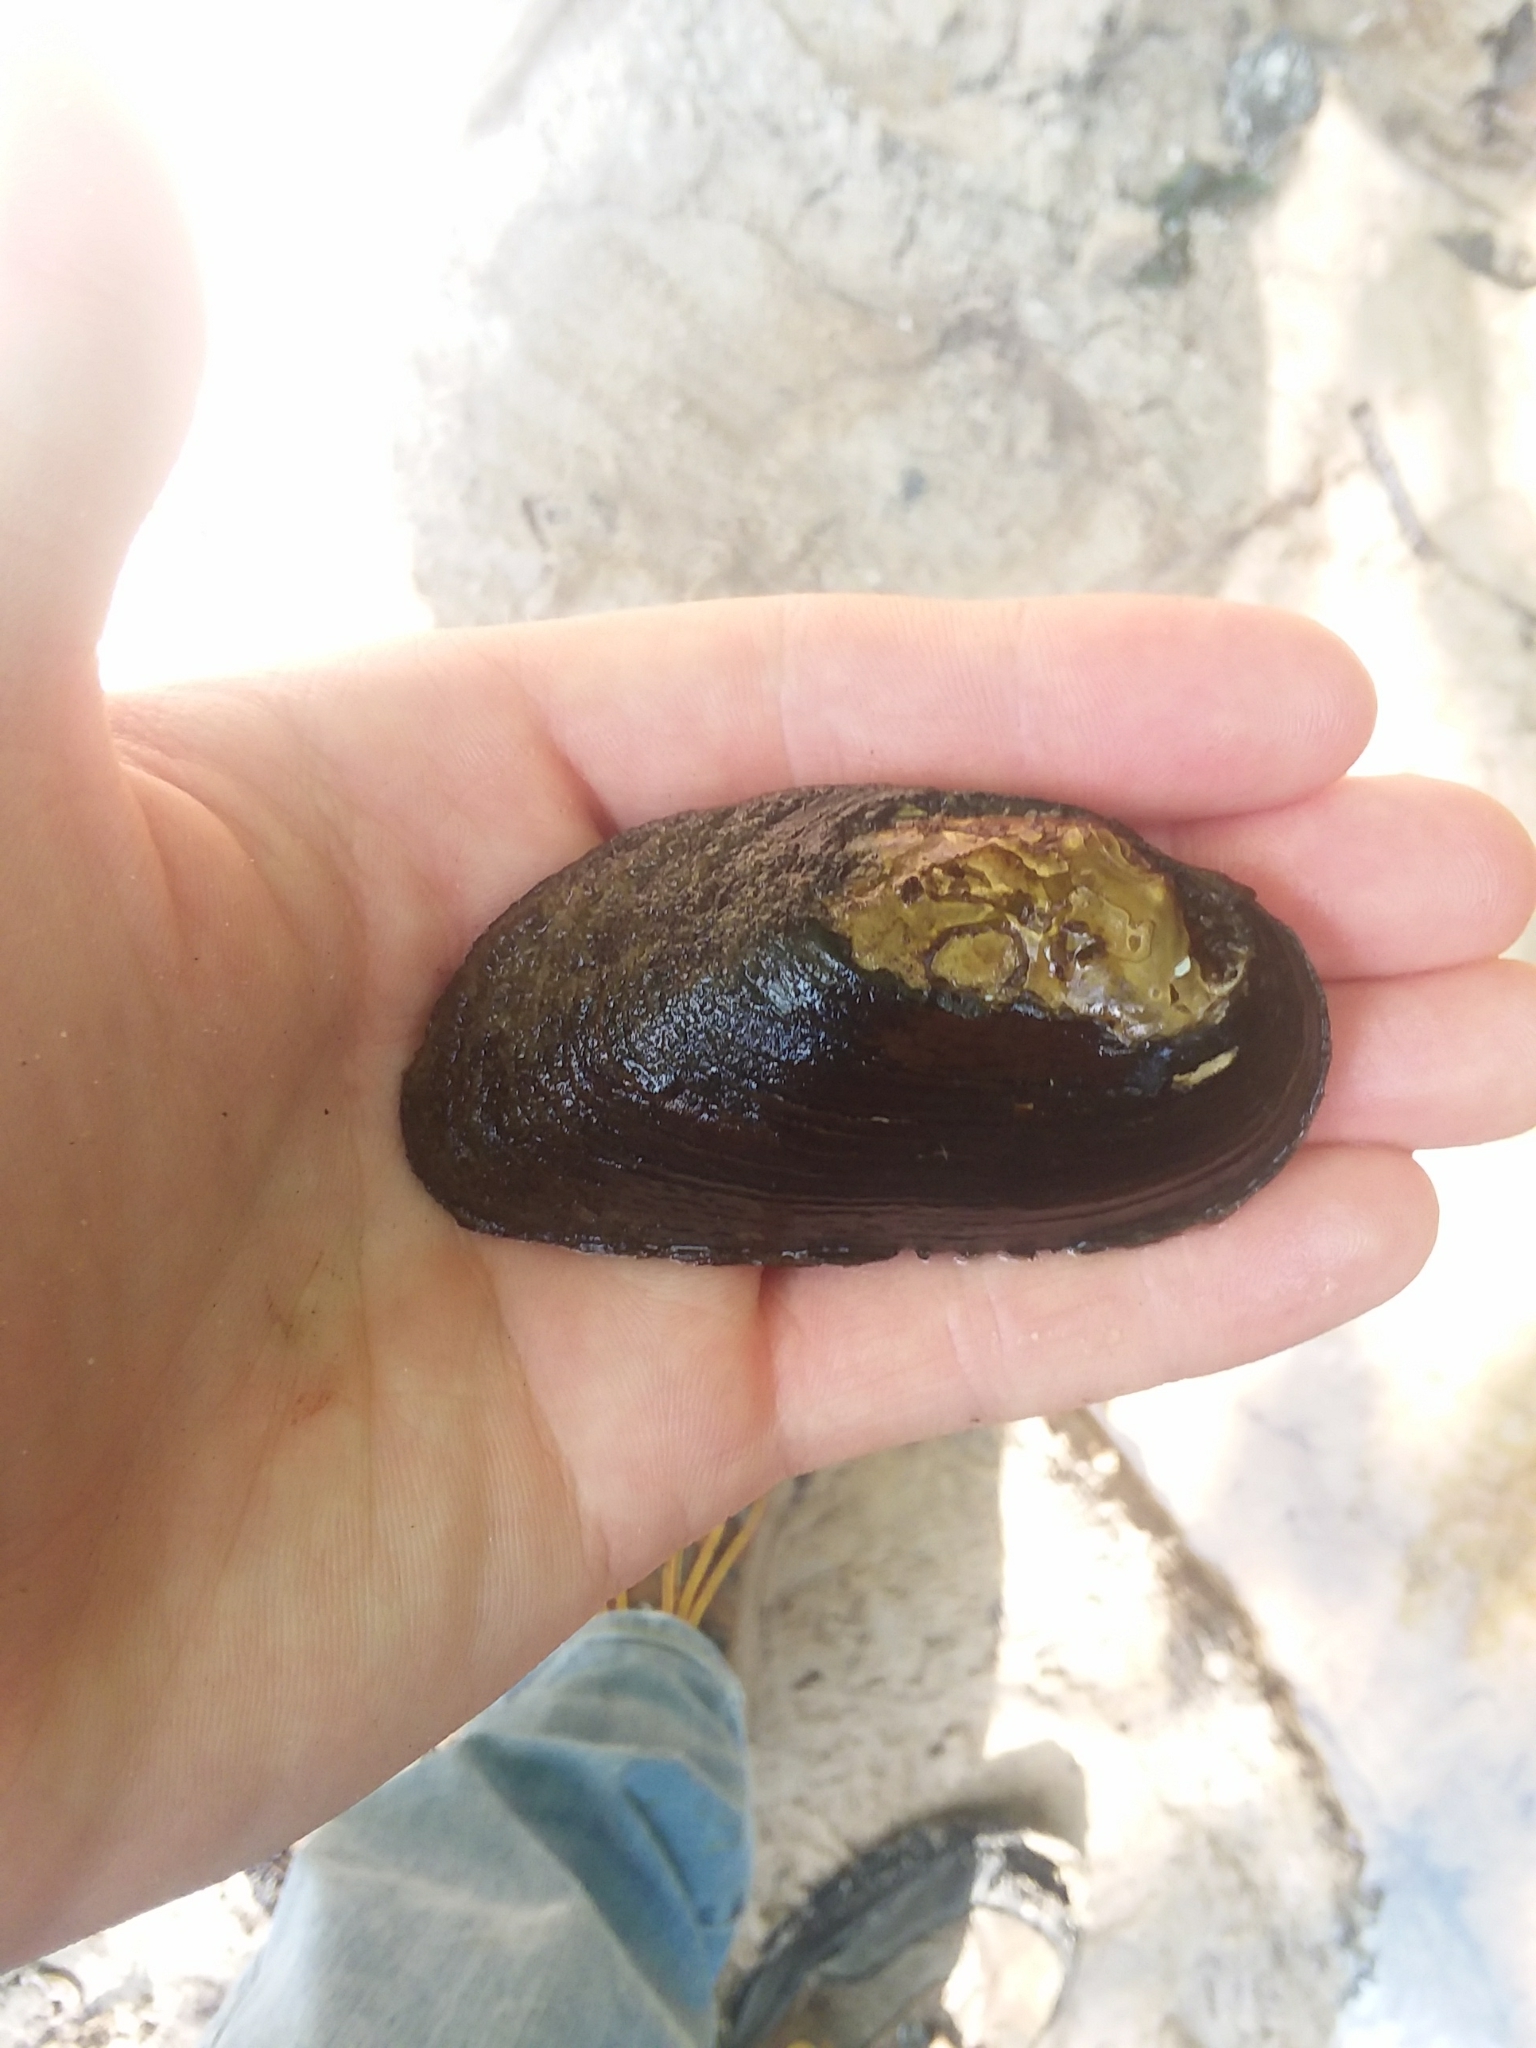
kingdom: Animalia
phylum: Mollusca
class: Bivalvia
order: Unionida
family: Unionidae
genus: Elliptio
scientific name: Elliptio arca
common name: Alabama spike
